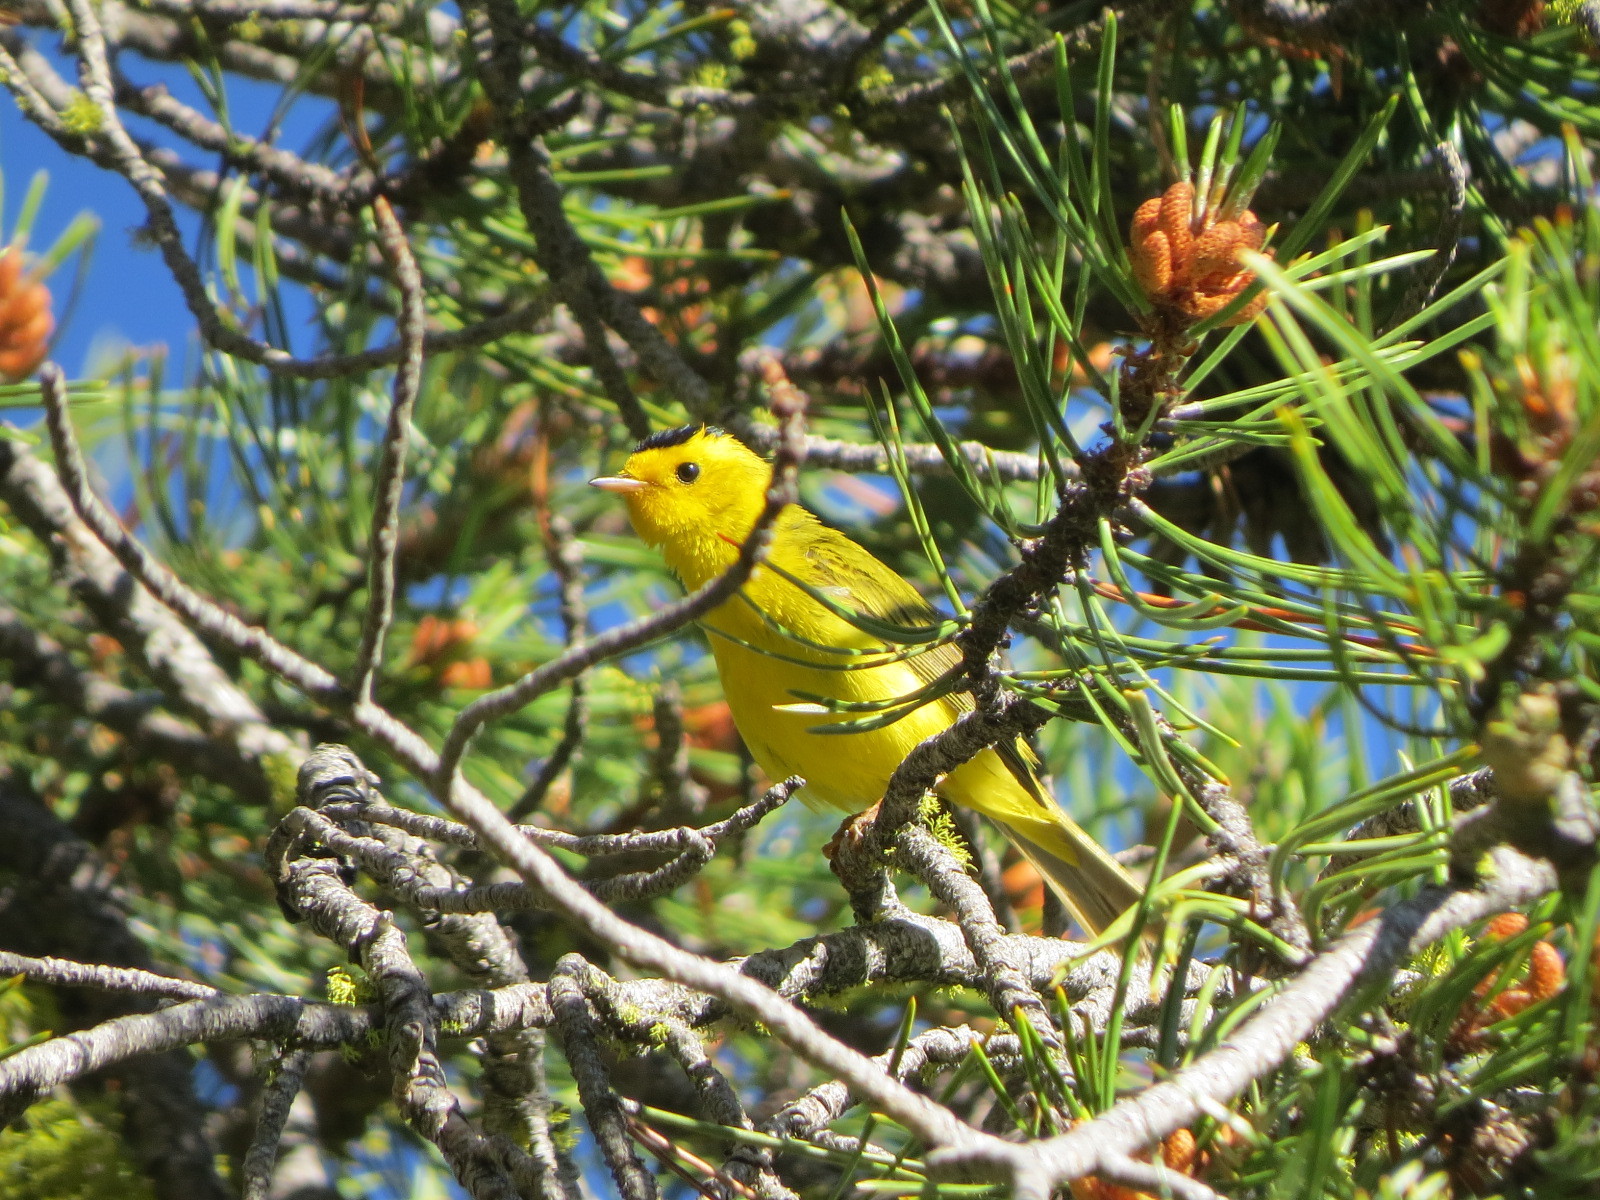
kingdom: Animalia
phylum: Chordata
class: Aves
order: Passeriformes
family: Parulidae
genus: Cardellina
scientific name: Cardellina pusilla
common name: Wilson's warbler
